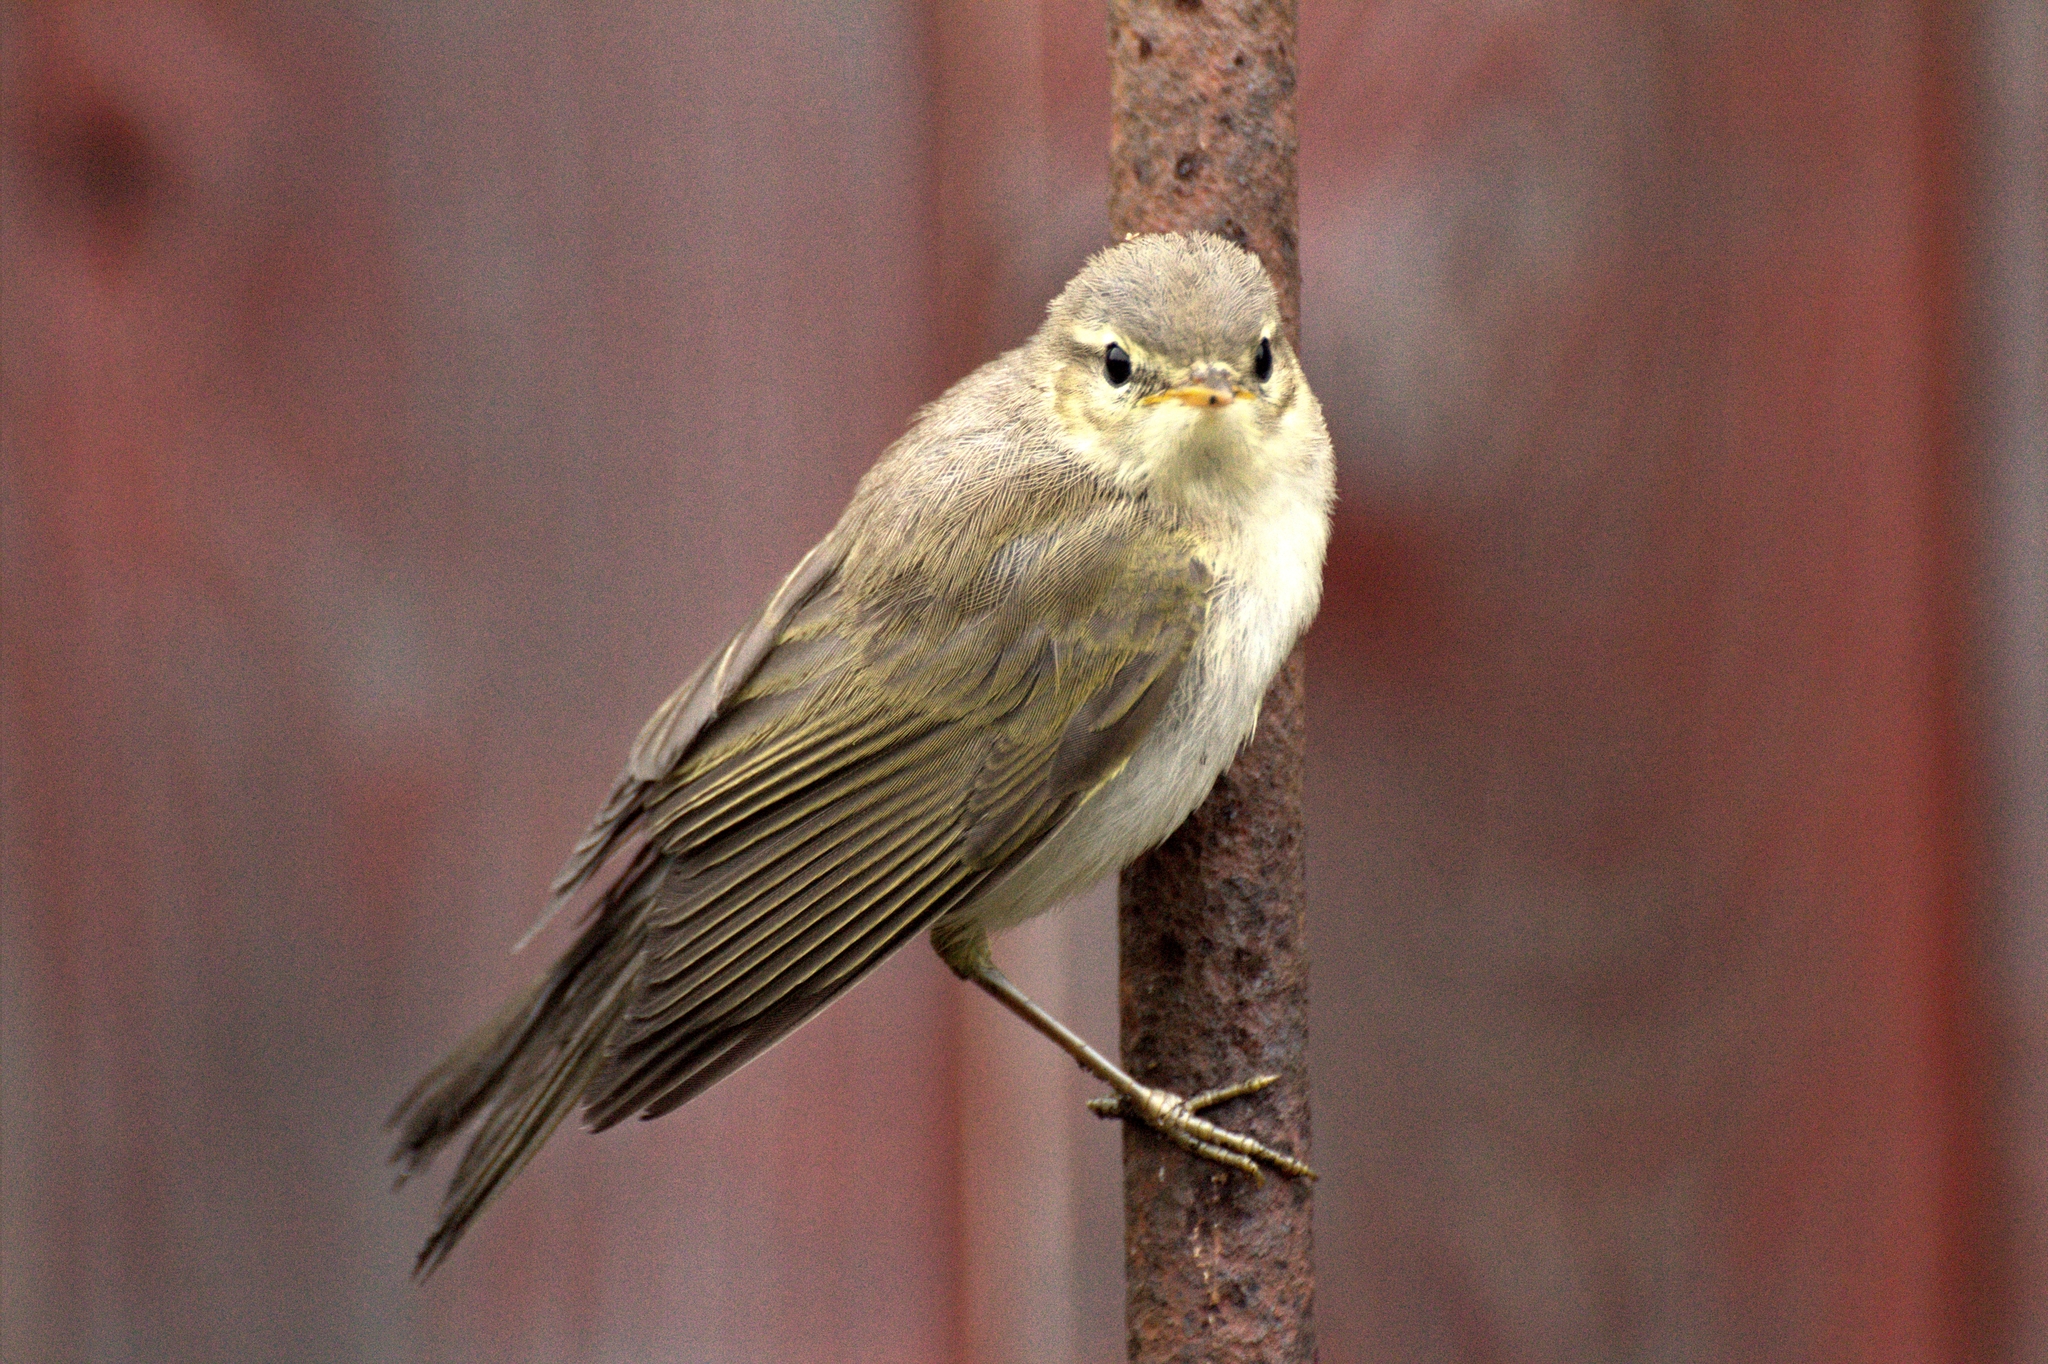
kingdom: Animalia
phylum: Chordata
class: Aves
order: Passeriformes
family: Phylloscopidae
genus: Phylloscopus
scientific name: Phylloscopus trochilus
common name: Willow warbler
